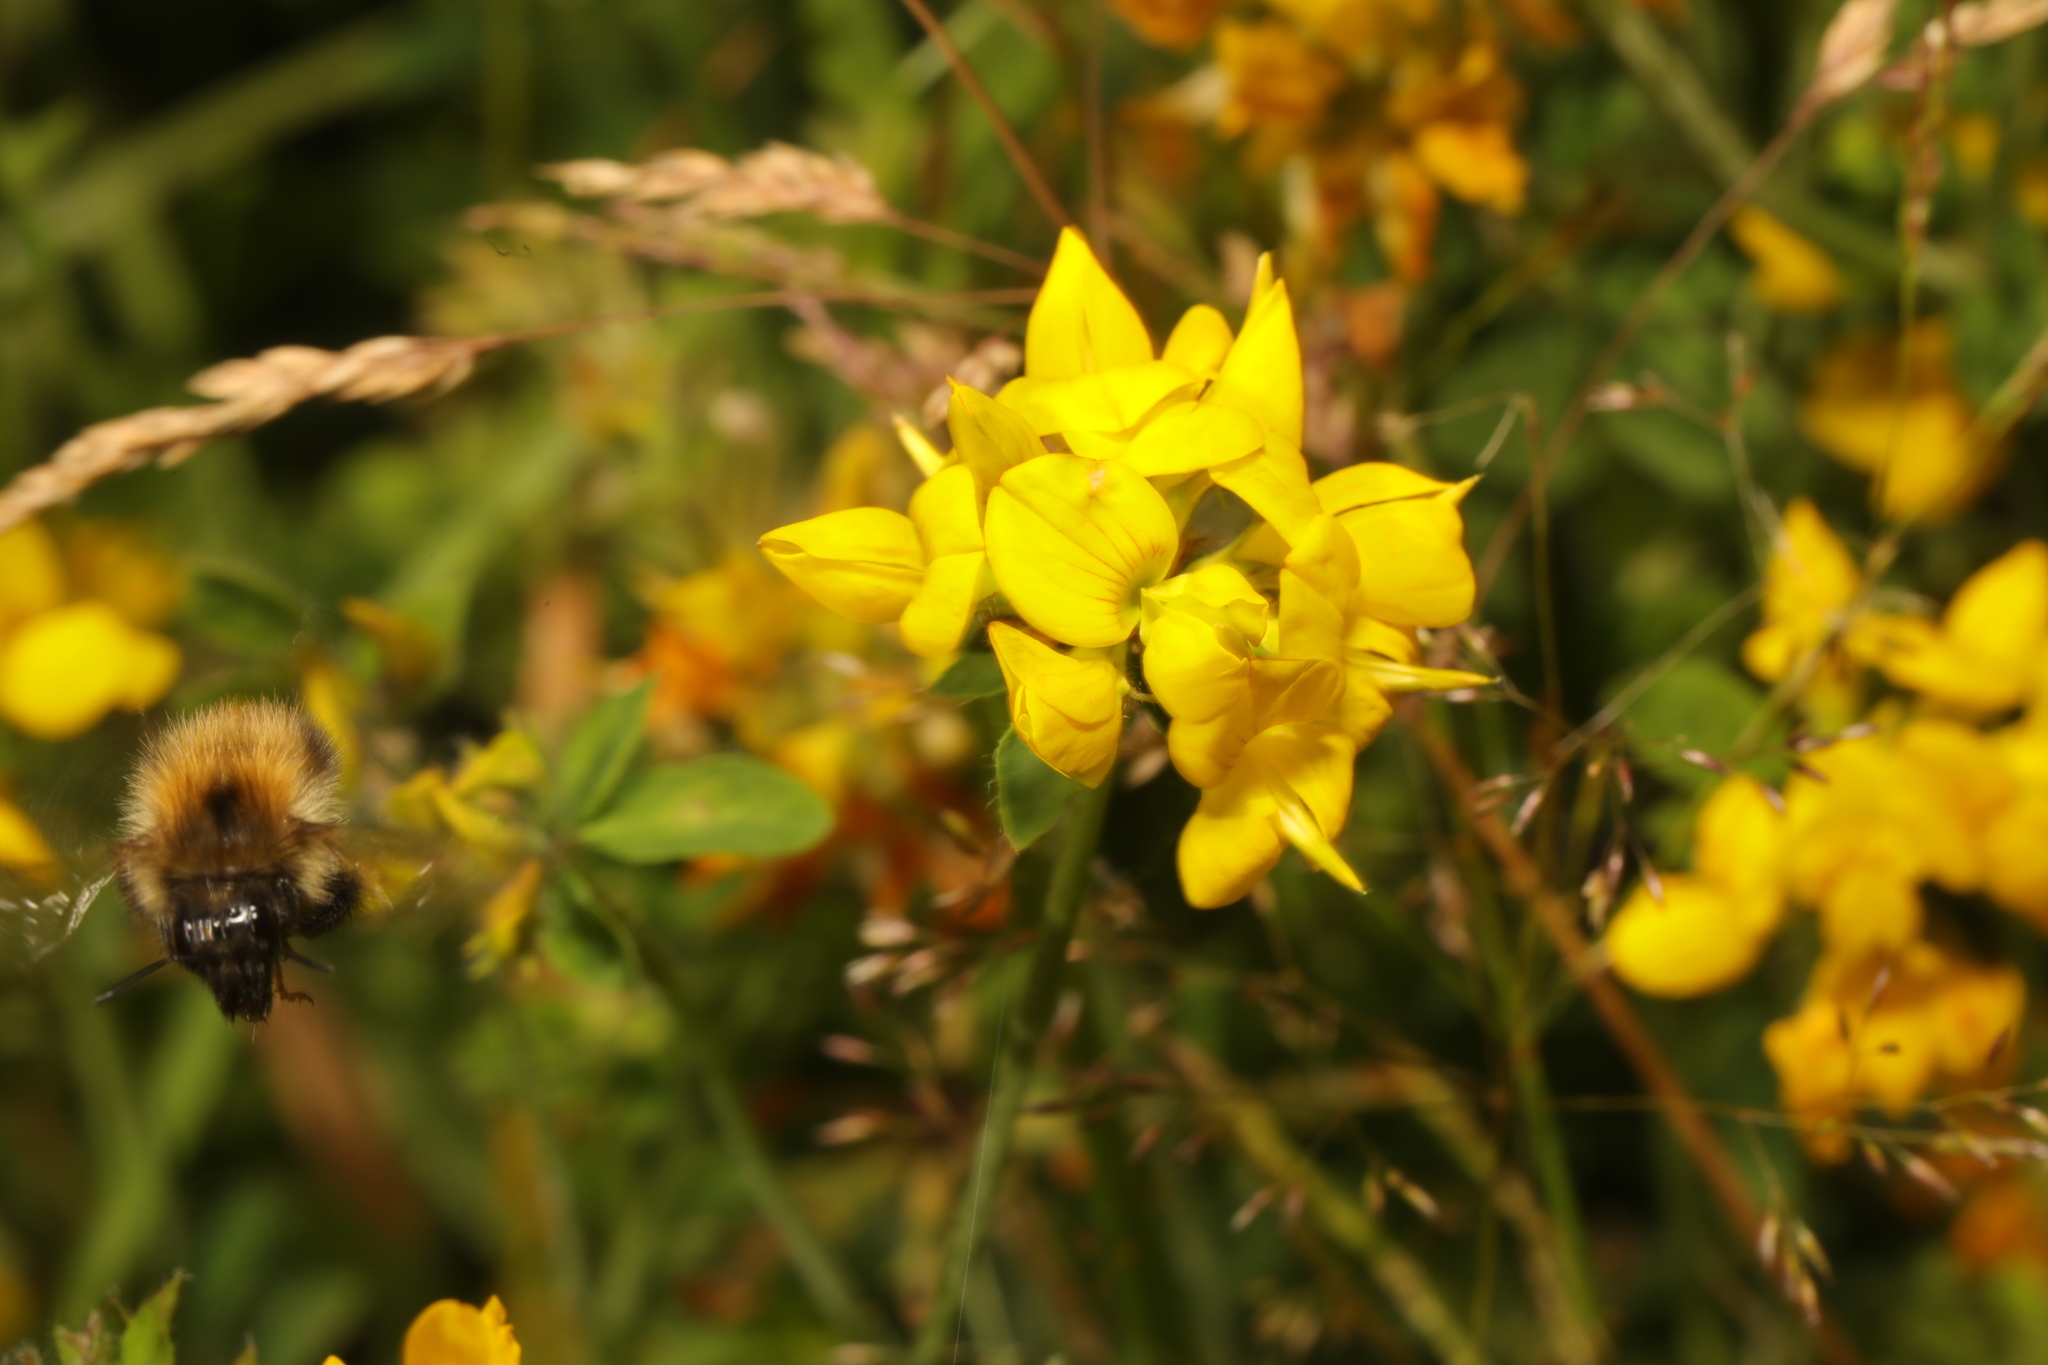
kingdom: Plantae
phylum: Tracheophyta
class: Magnoliopsida
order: Fabales
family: Fabaceae
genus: Lotus
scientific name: Lotus pedunculatus
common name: Greater birdsfoot-trefoil
